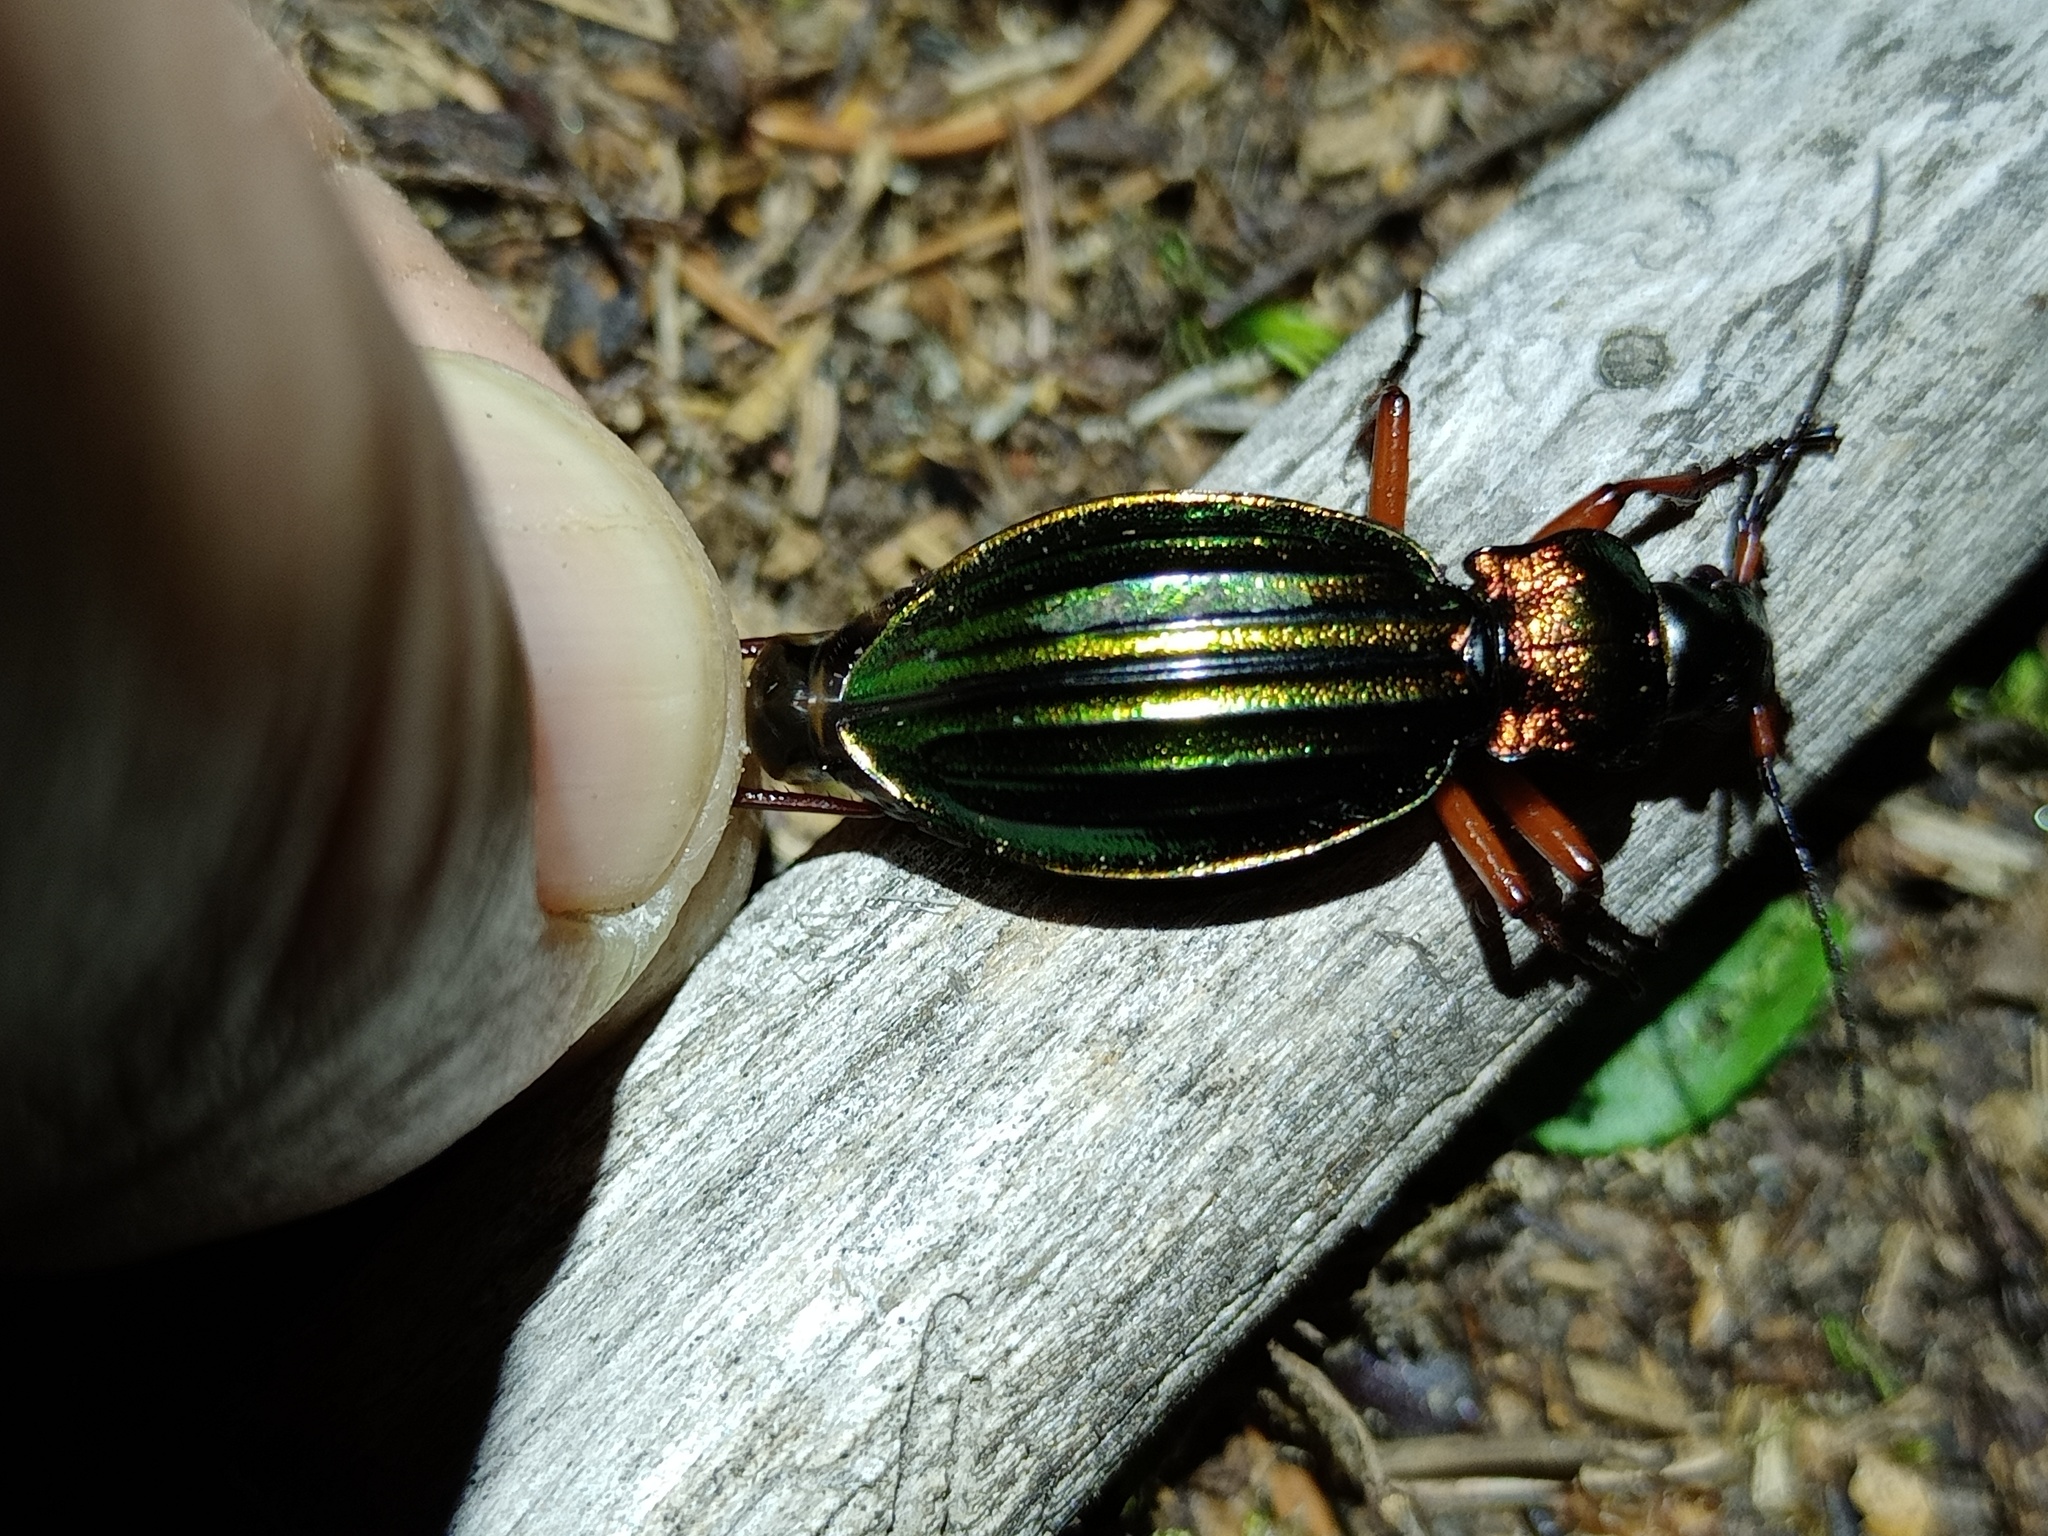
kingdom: Animalia
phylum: Arthropoda
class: Insecta
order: Coleoptera
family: Carabidae
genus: Carabus
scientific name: Carabus auronitens
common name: Carabus auronitens
